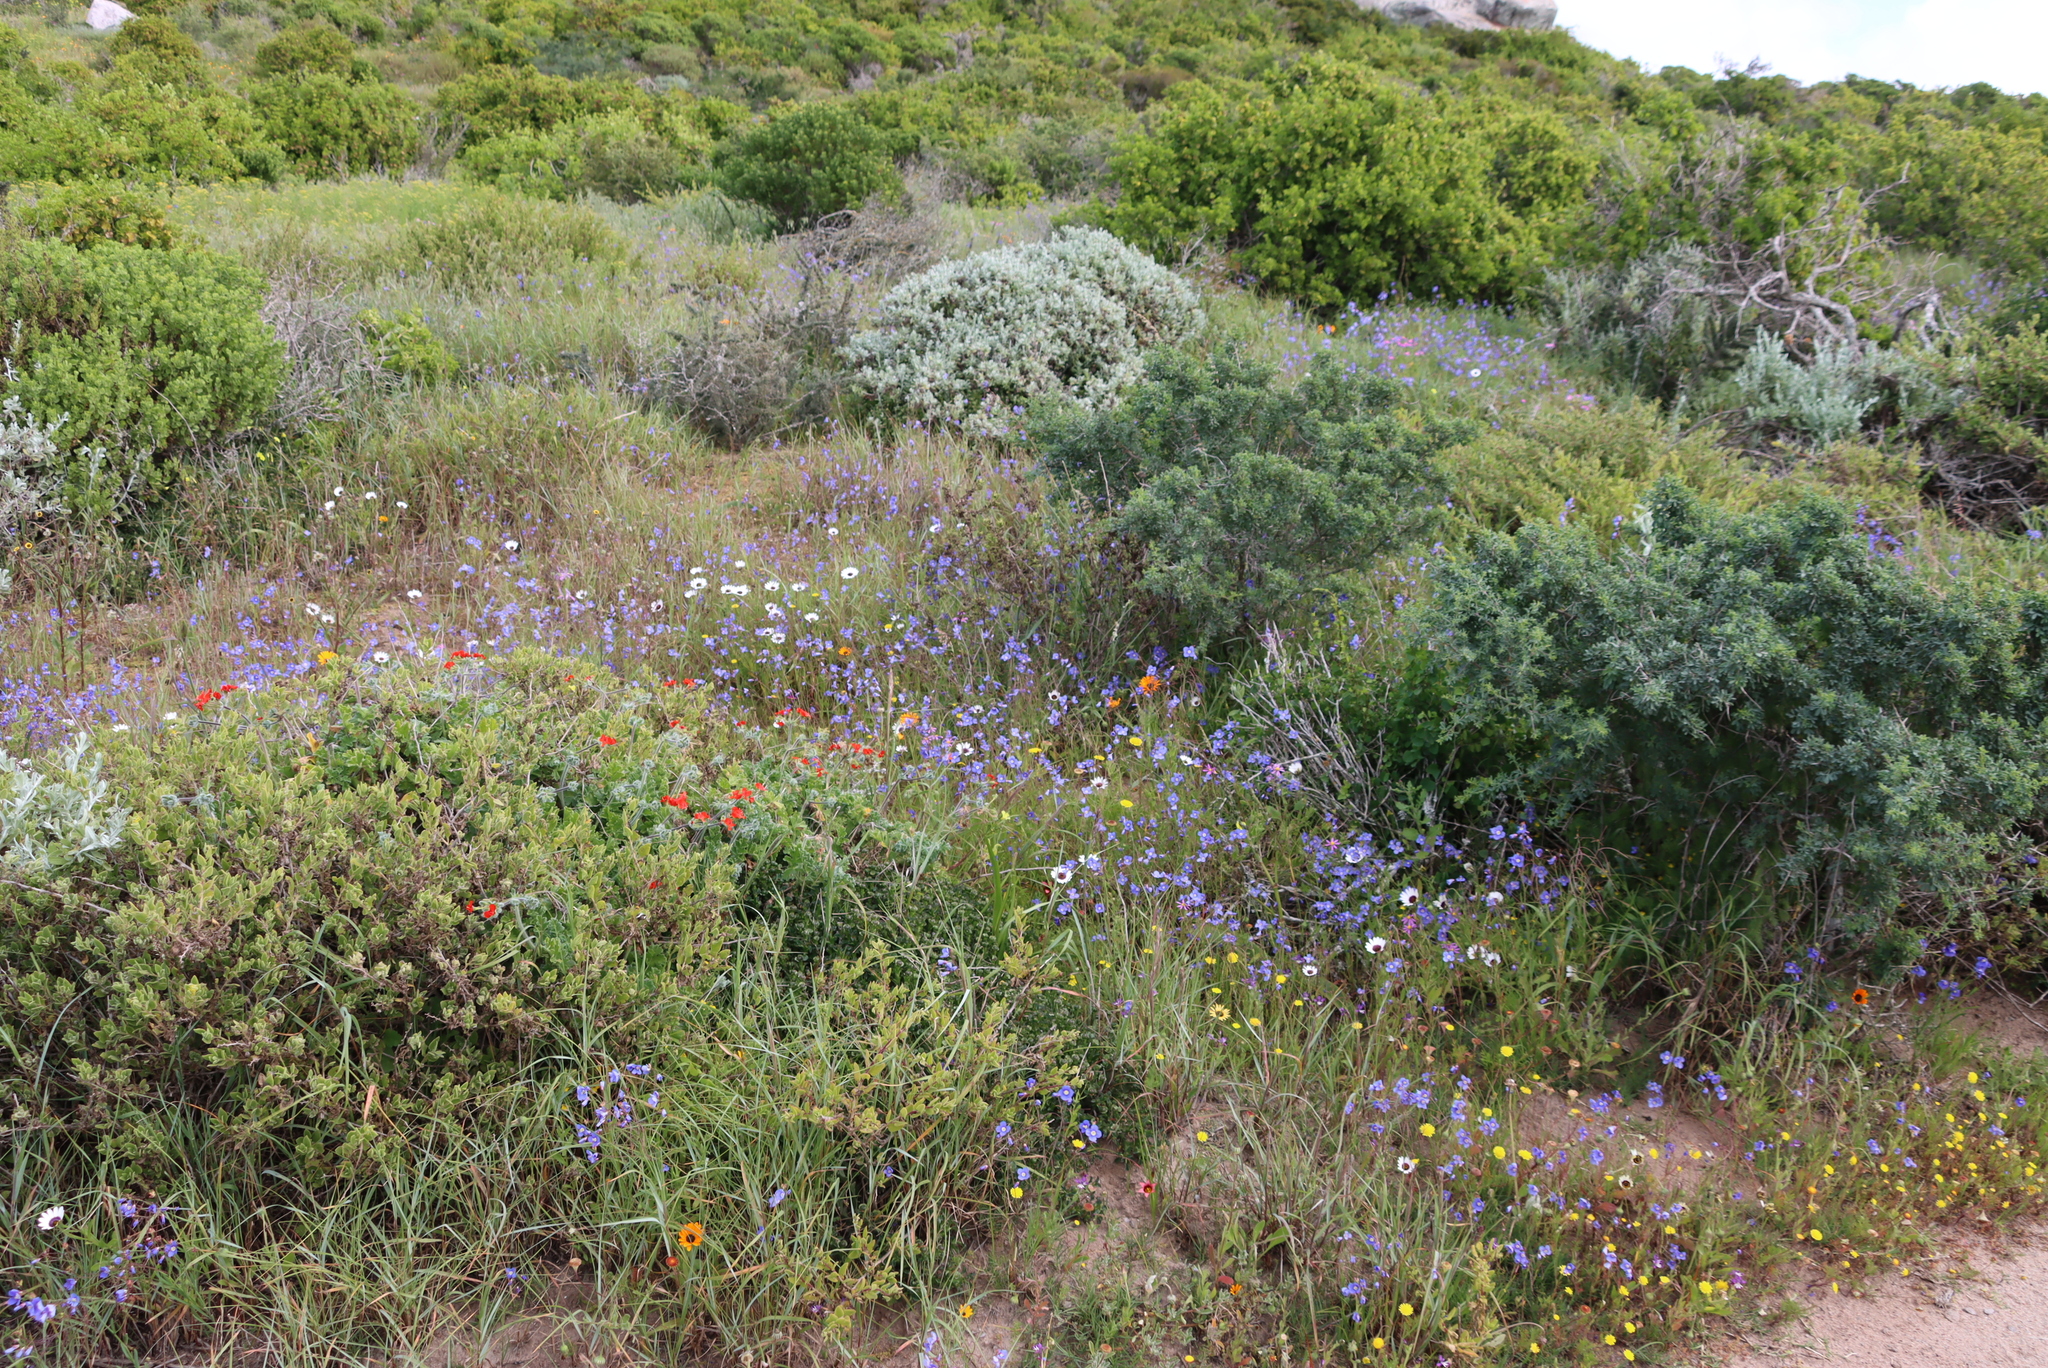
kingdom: Plantae
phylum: Tracheophyta
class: Magnoliopsida
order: Geraniales
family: Geraniaceae
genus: Pelargonium
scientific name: Pelargonium fulgidum
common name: Celandine-leaf pelargonium
